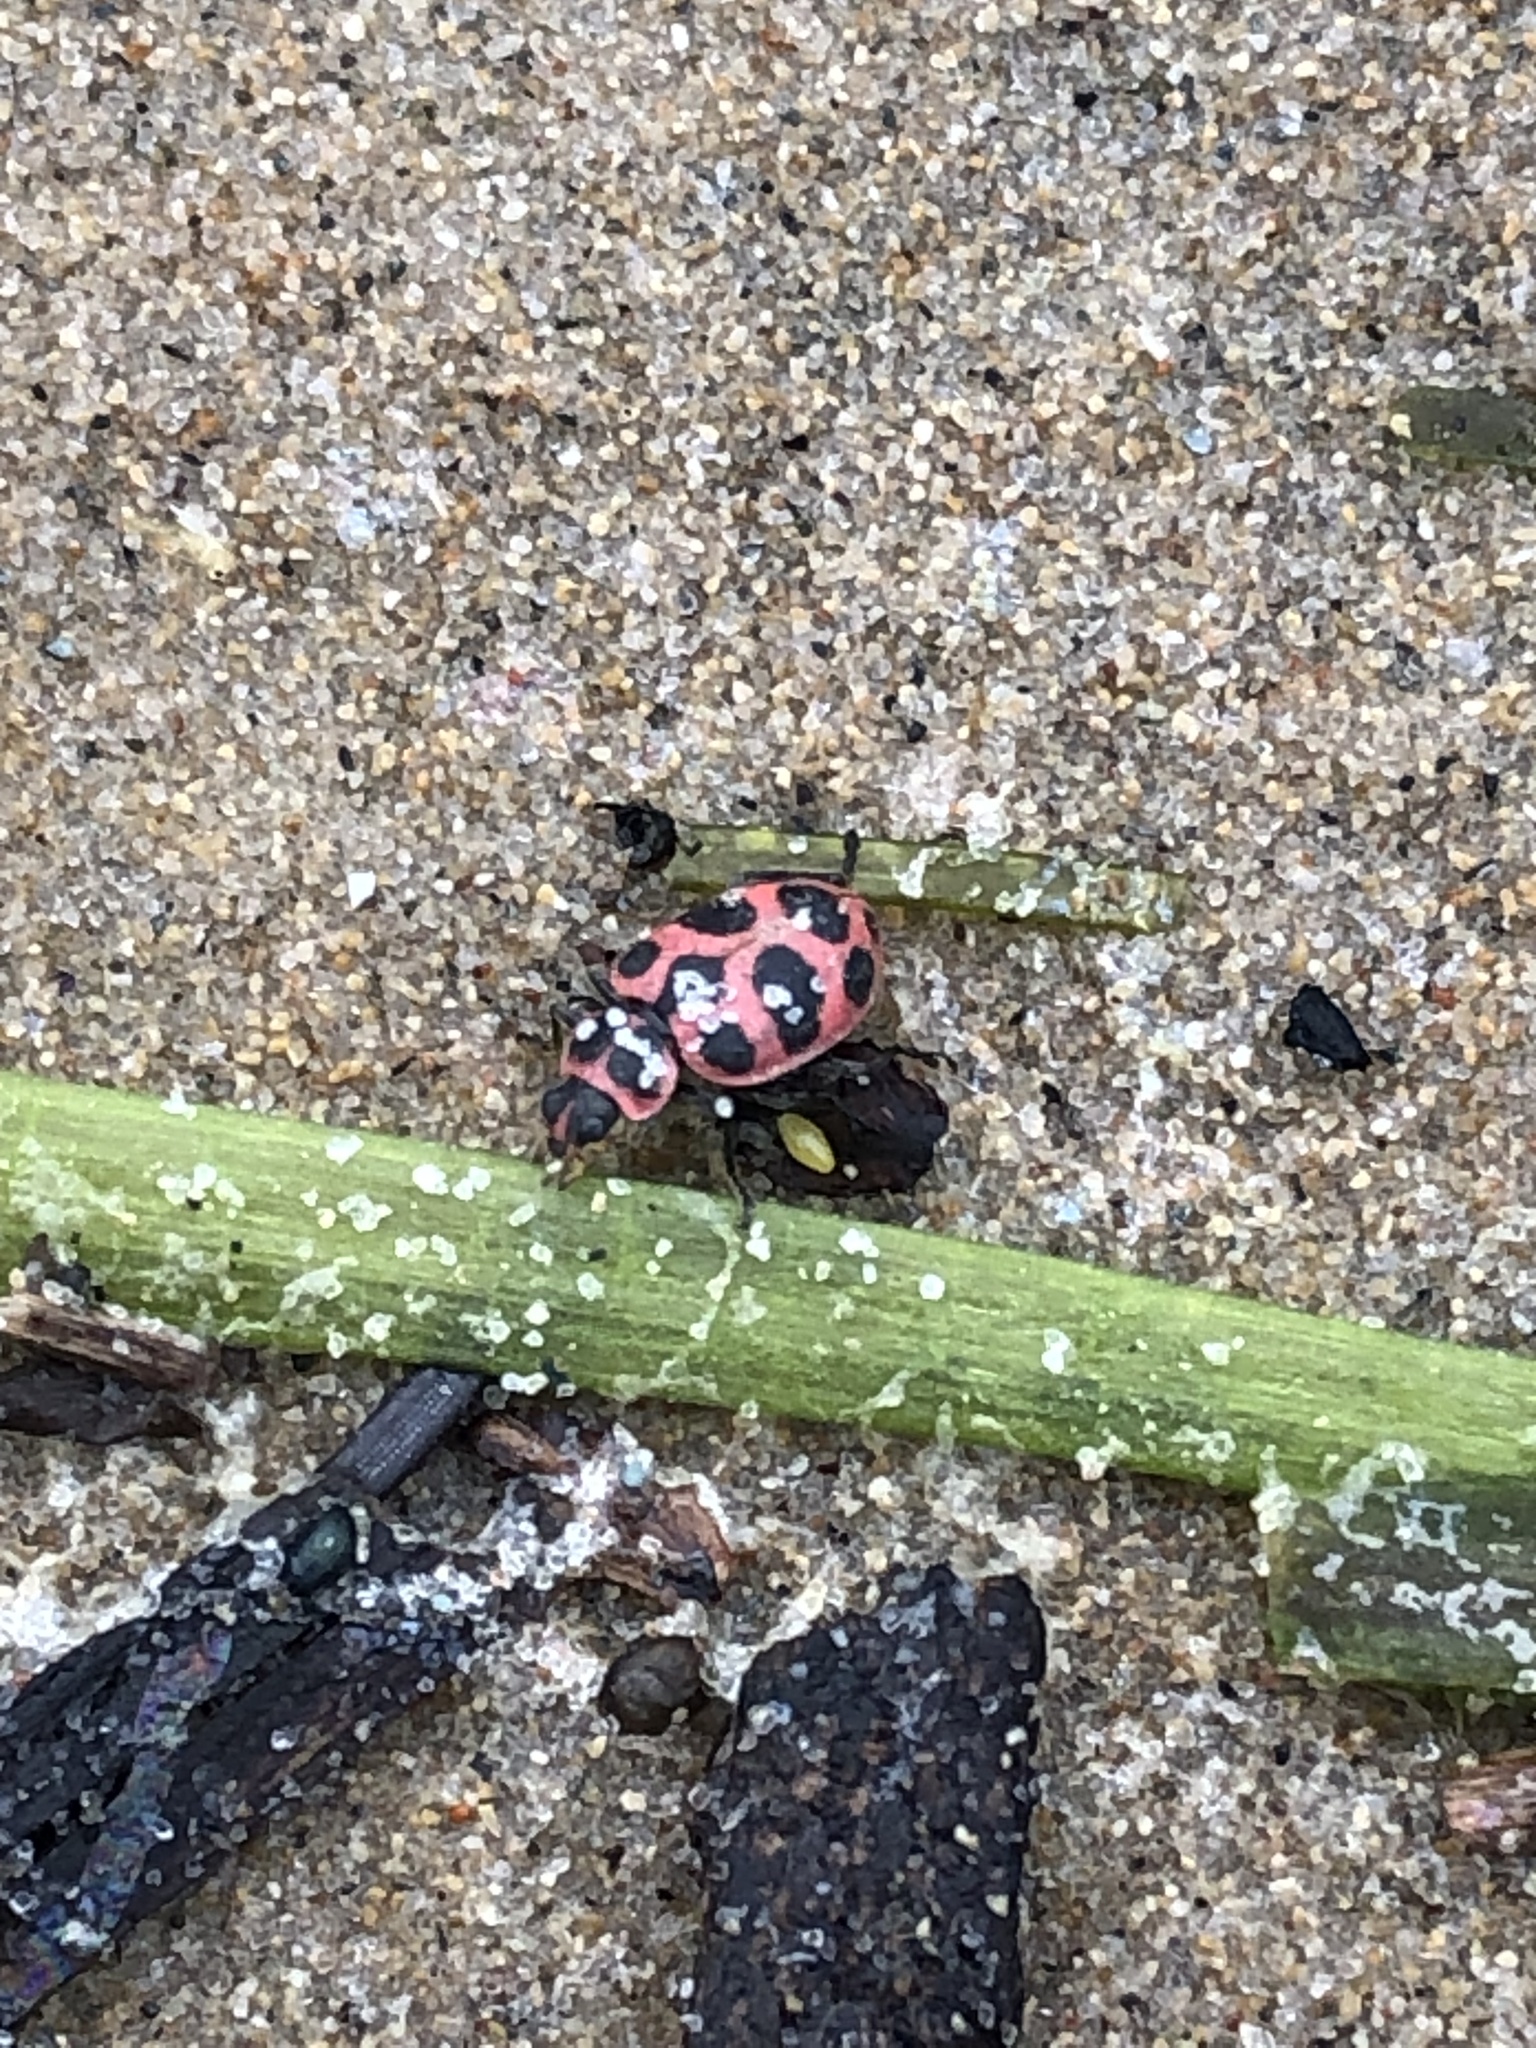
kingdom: Animalia
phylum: Arthropoda
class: Insecta
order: Coleoptera
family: Coccinellidae
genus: Coleomegilla
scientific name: Coleomegilla maculata
